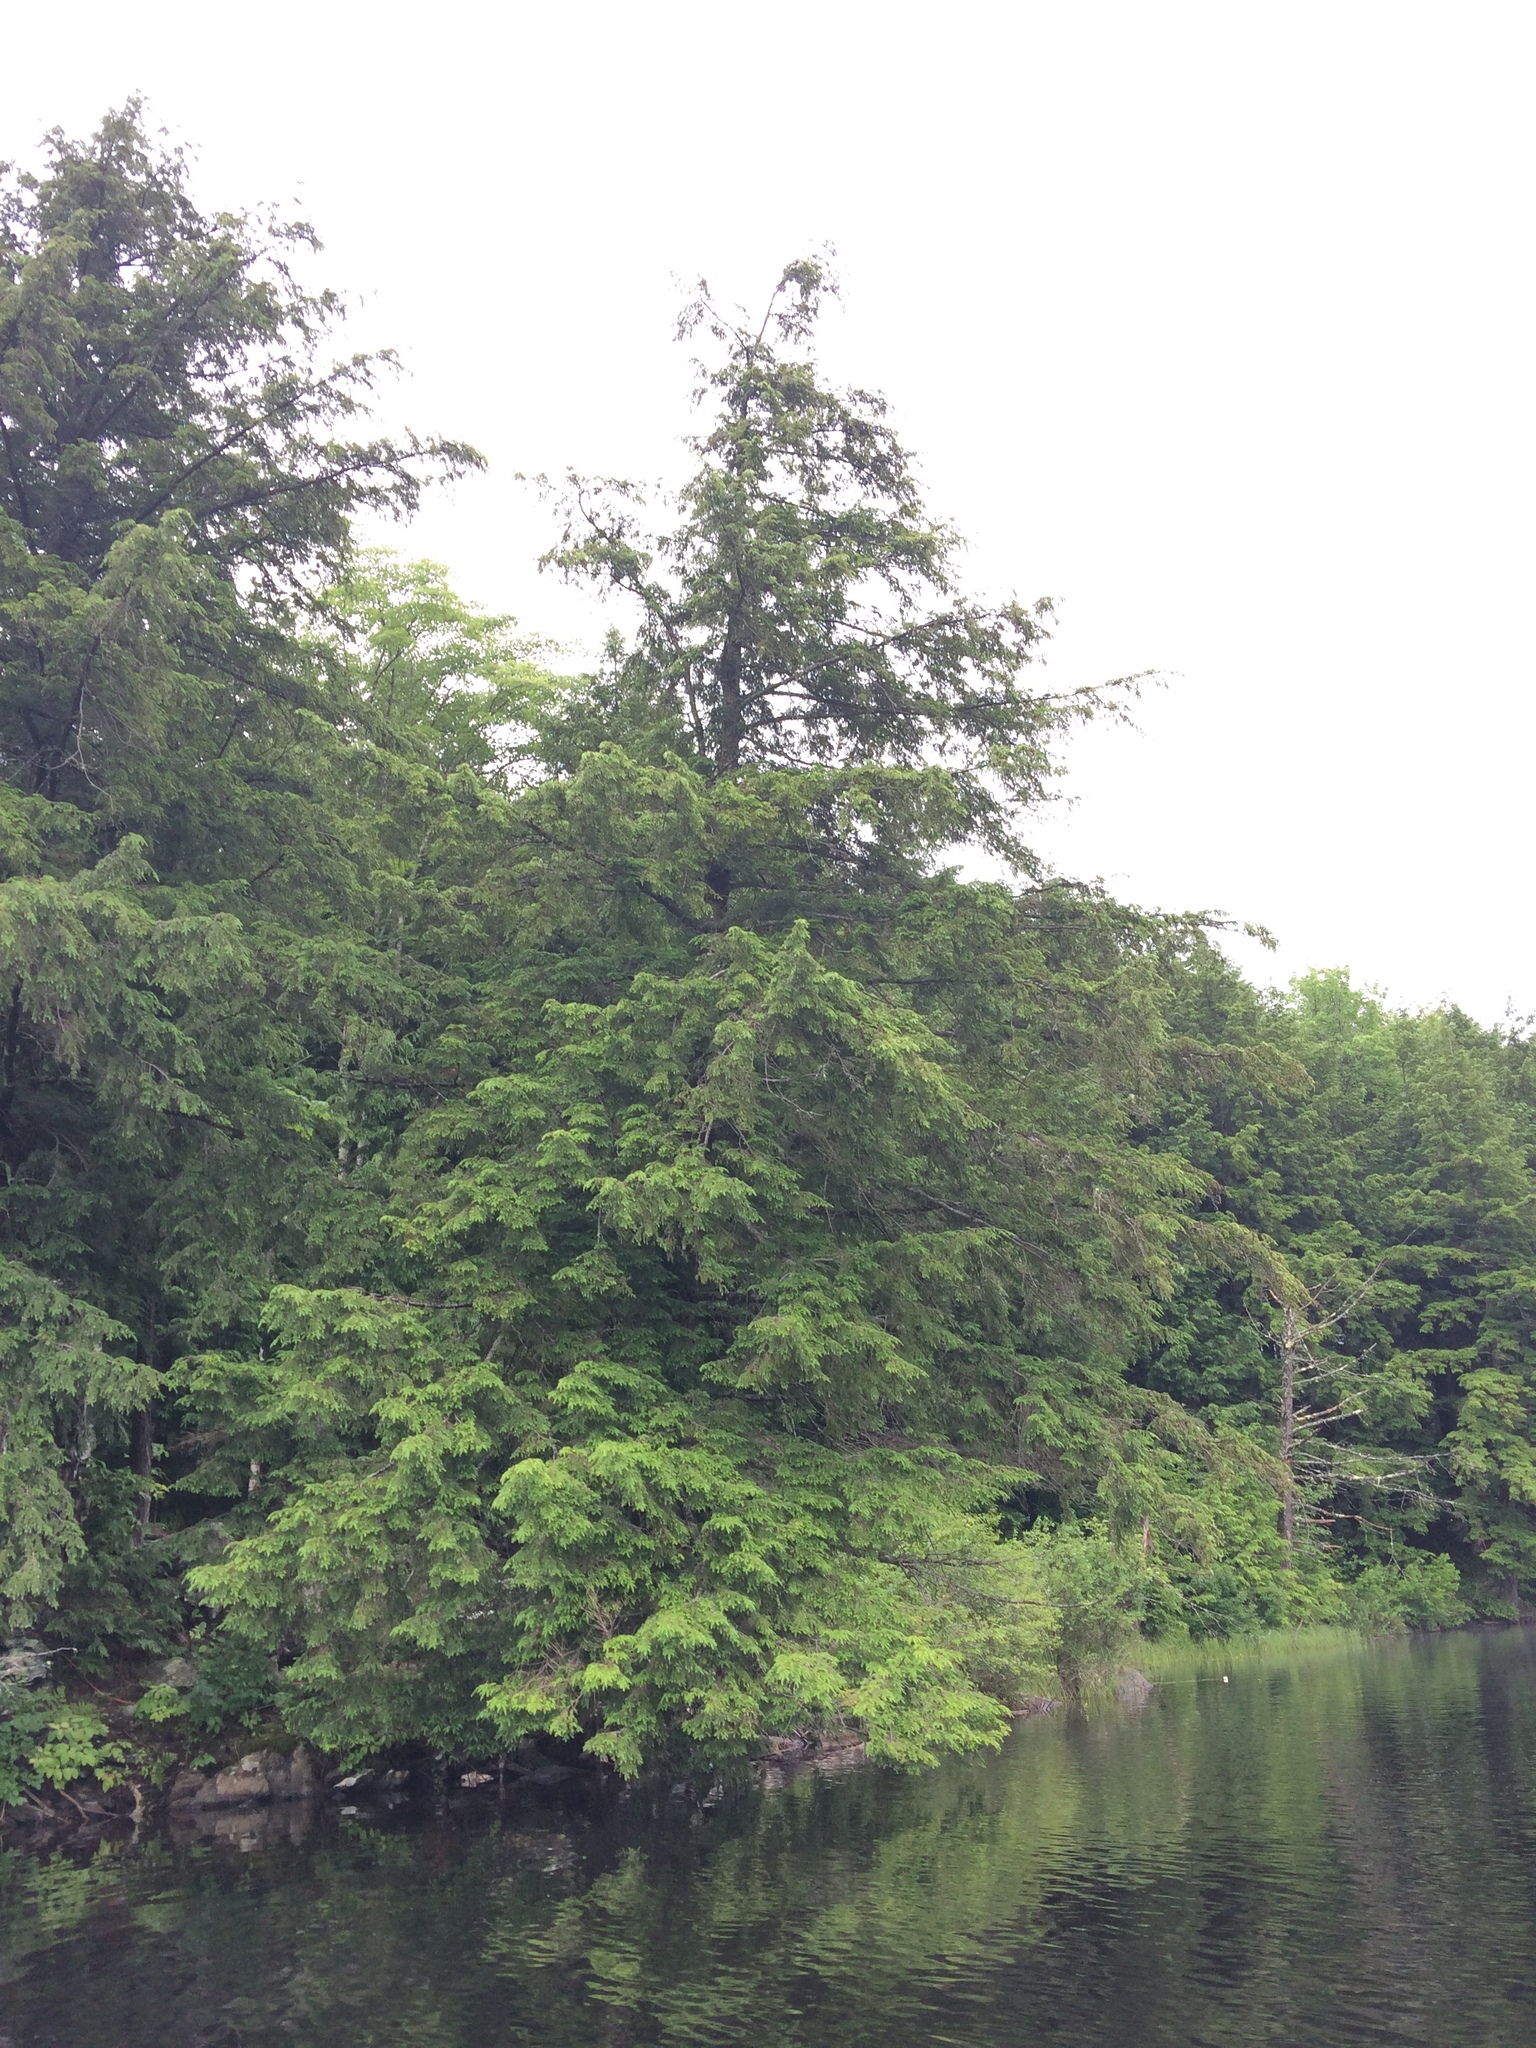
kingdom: Plantae
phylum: Tracheophyta
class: Pinopsida
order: Pinales
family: Pinaceae
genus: Tsuga
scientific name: Tsuga canadensis
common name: Eastern hemlock
